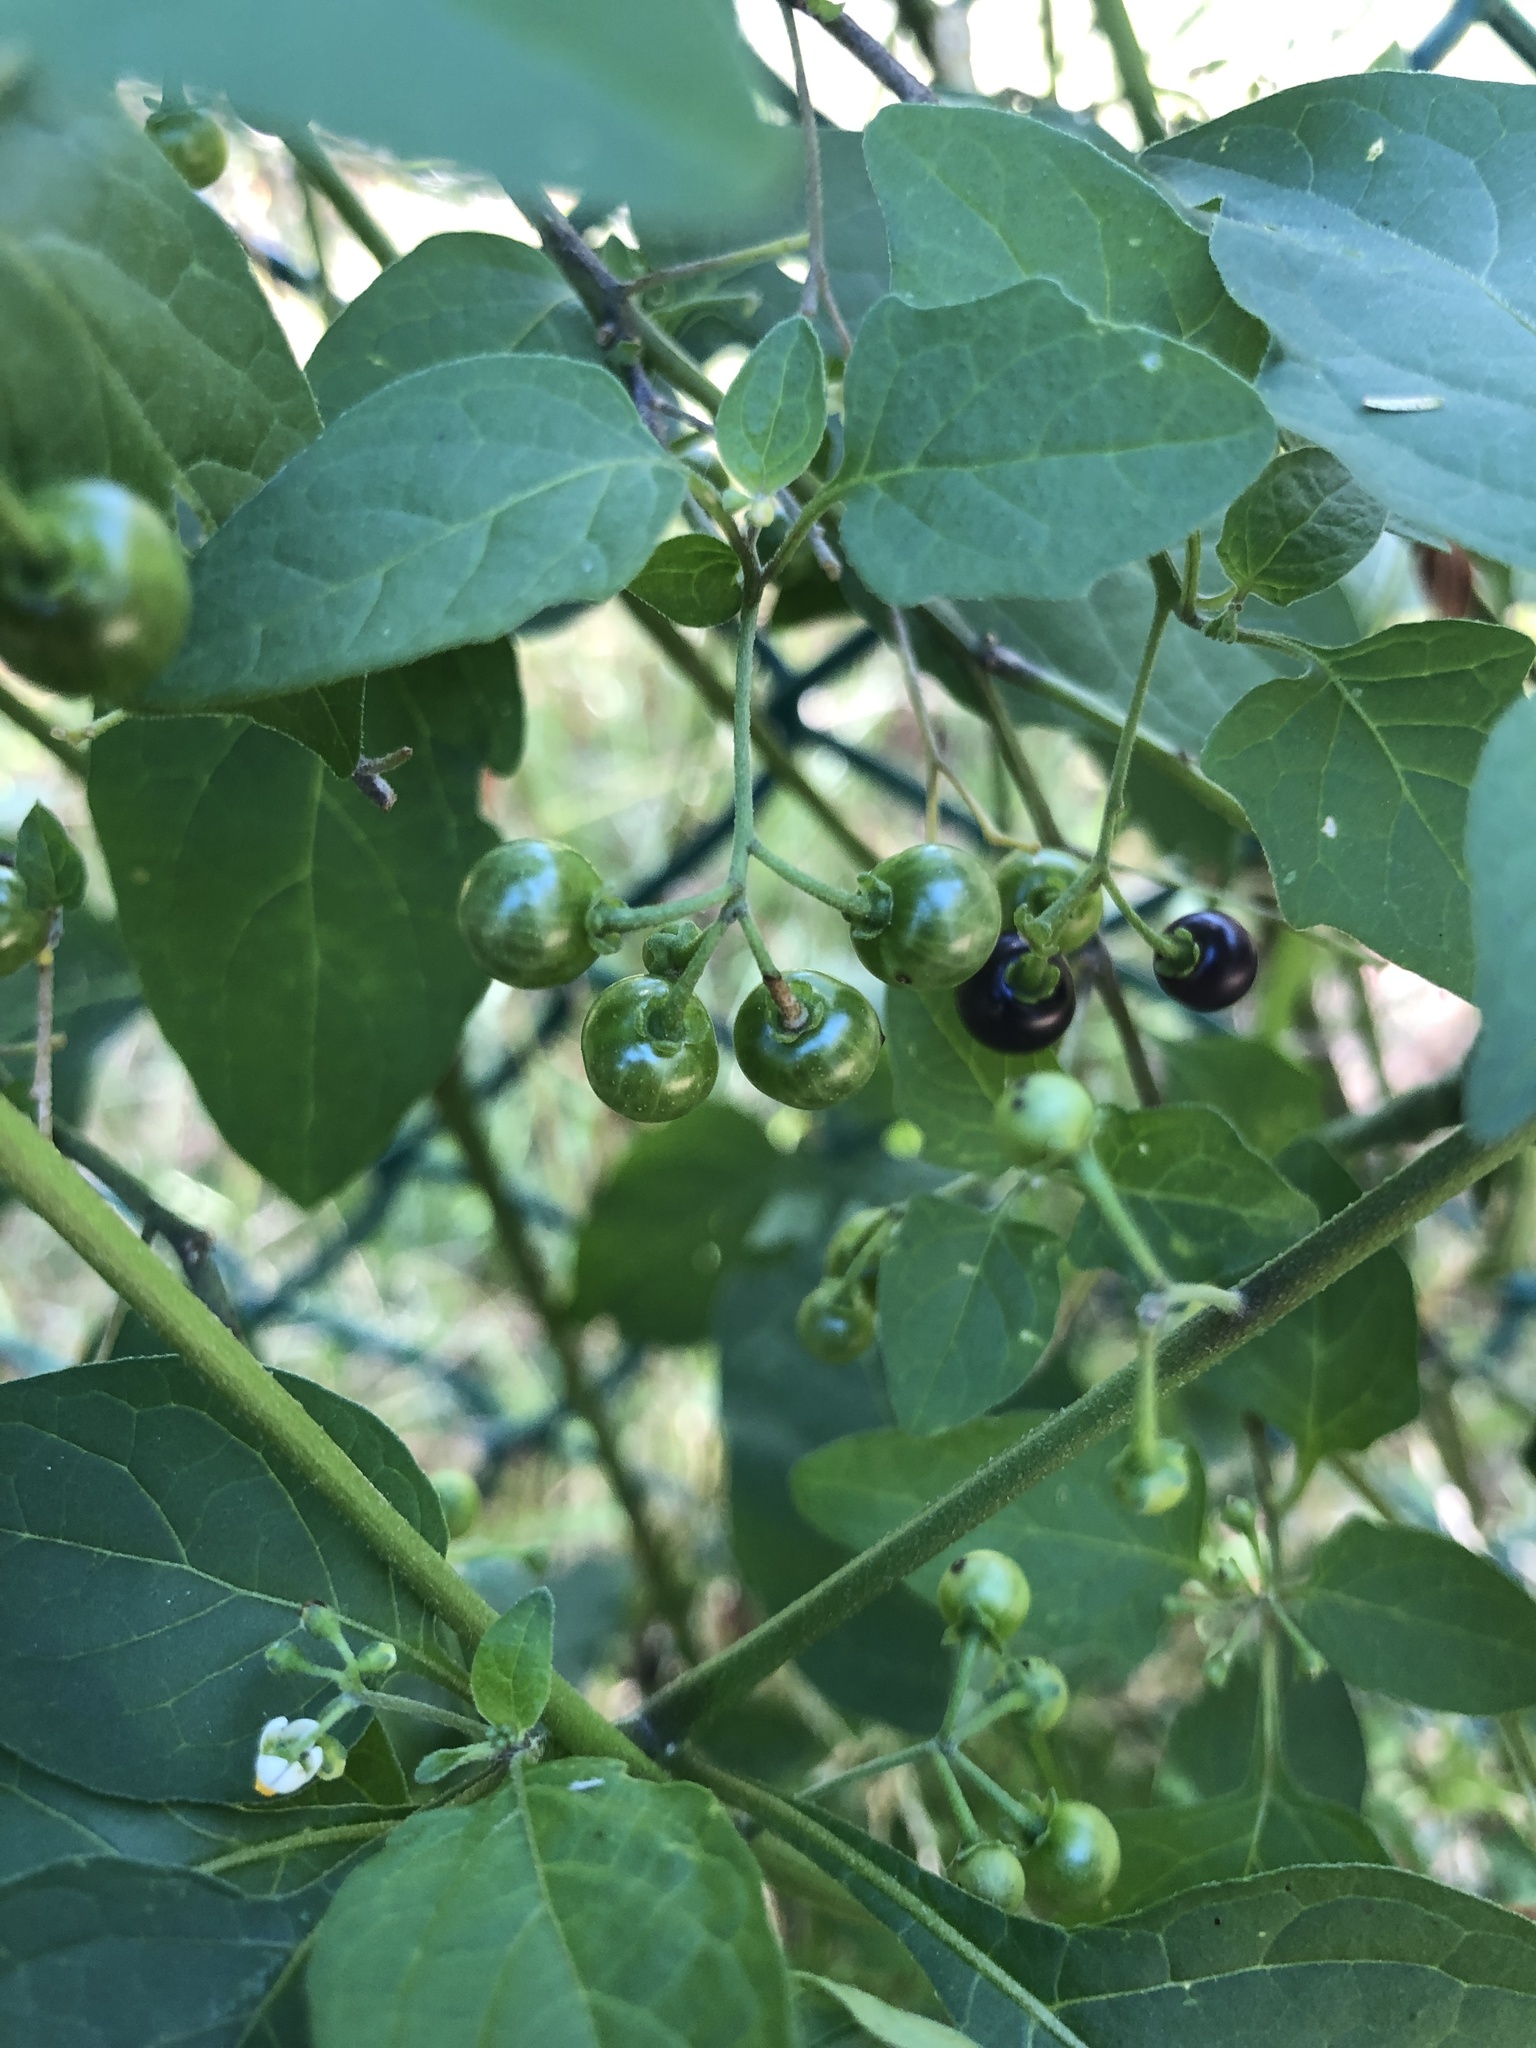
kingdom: Plantae
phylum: Tracheophyta
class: Magnoliopsida
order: Solanales
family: Solanaceae
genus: Solanum
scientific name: Solanum americanum
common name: American black nightshade
